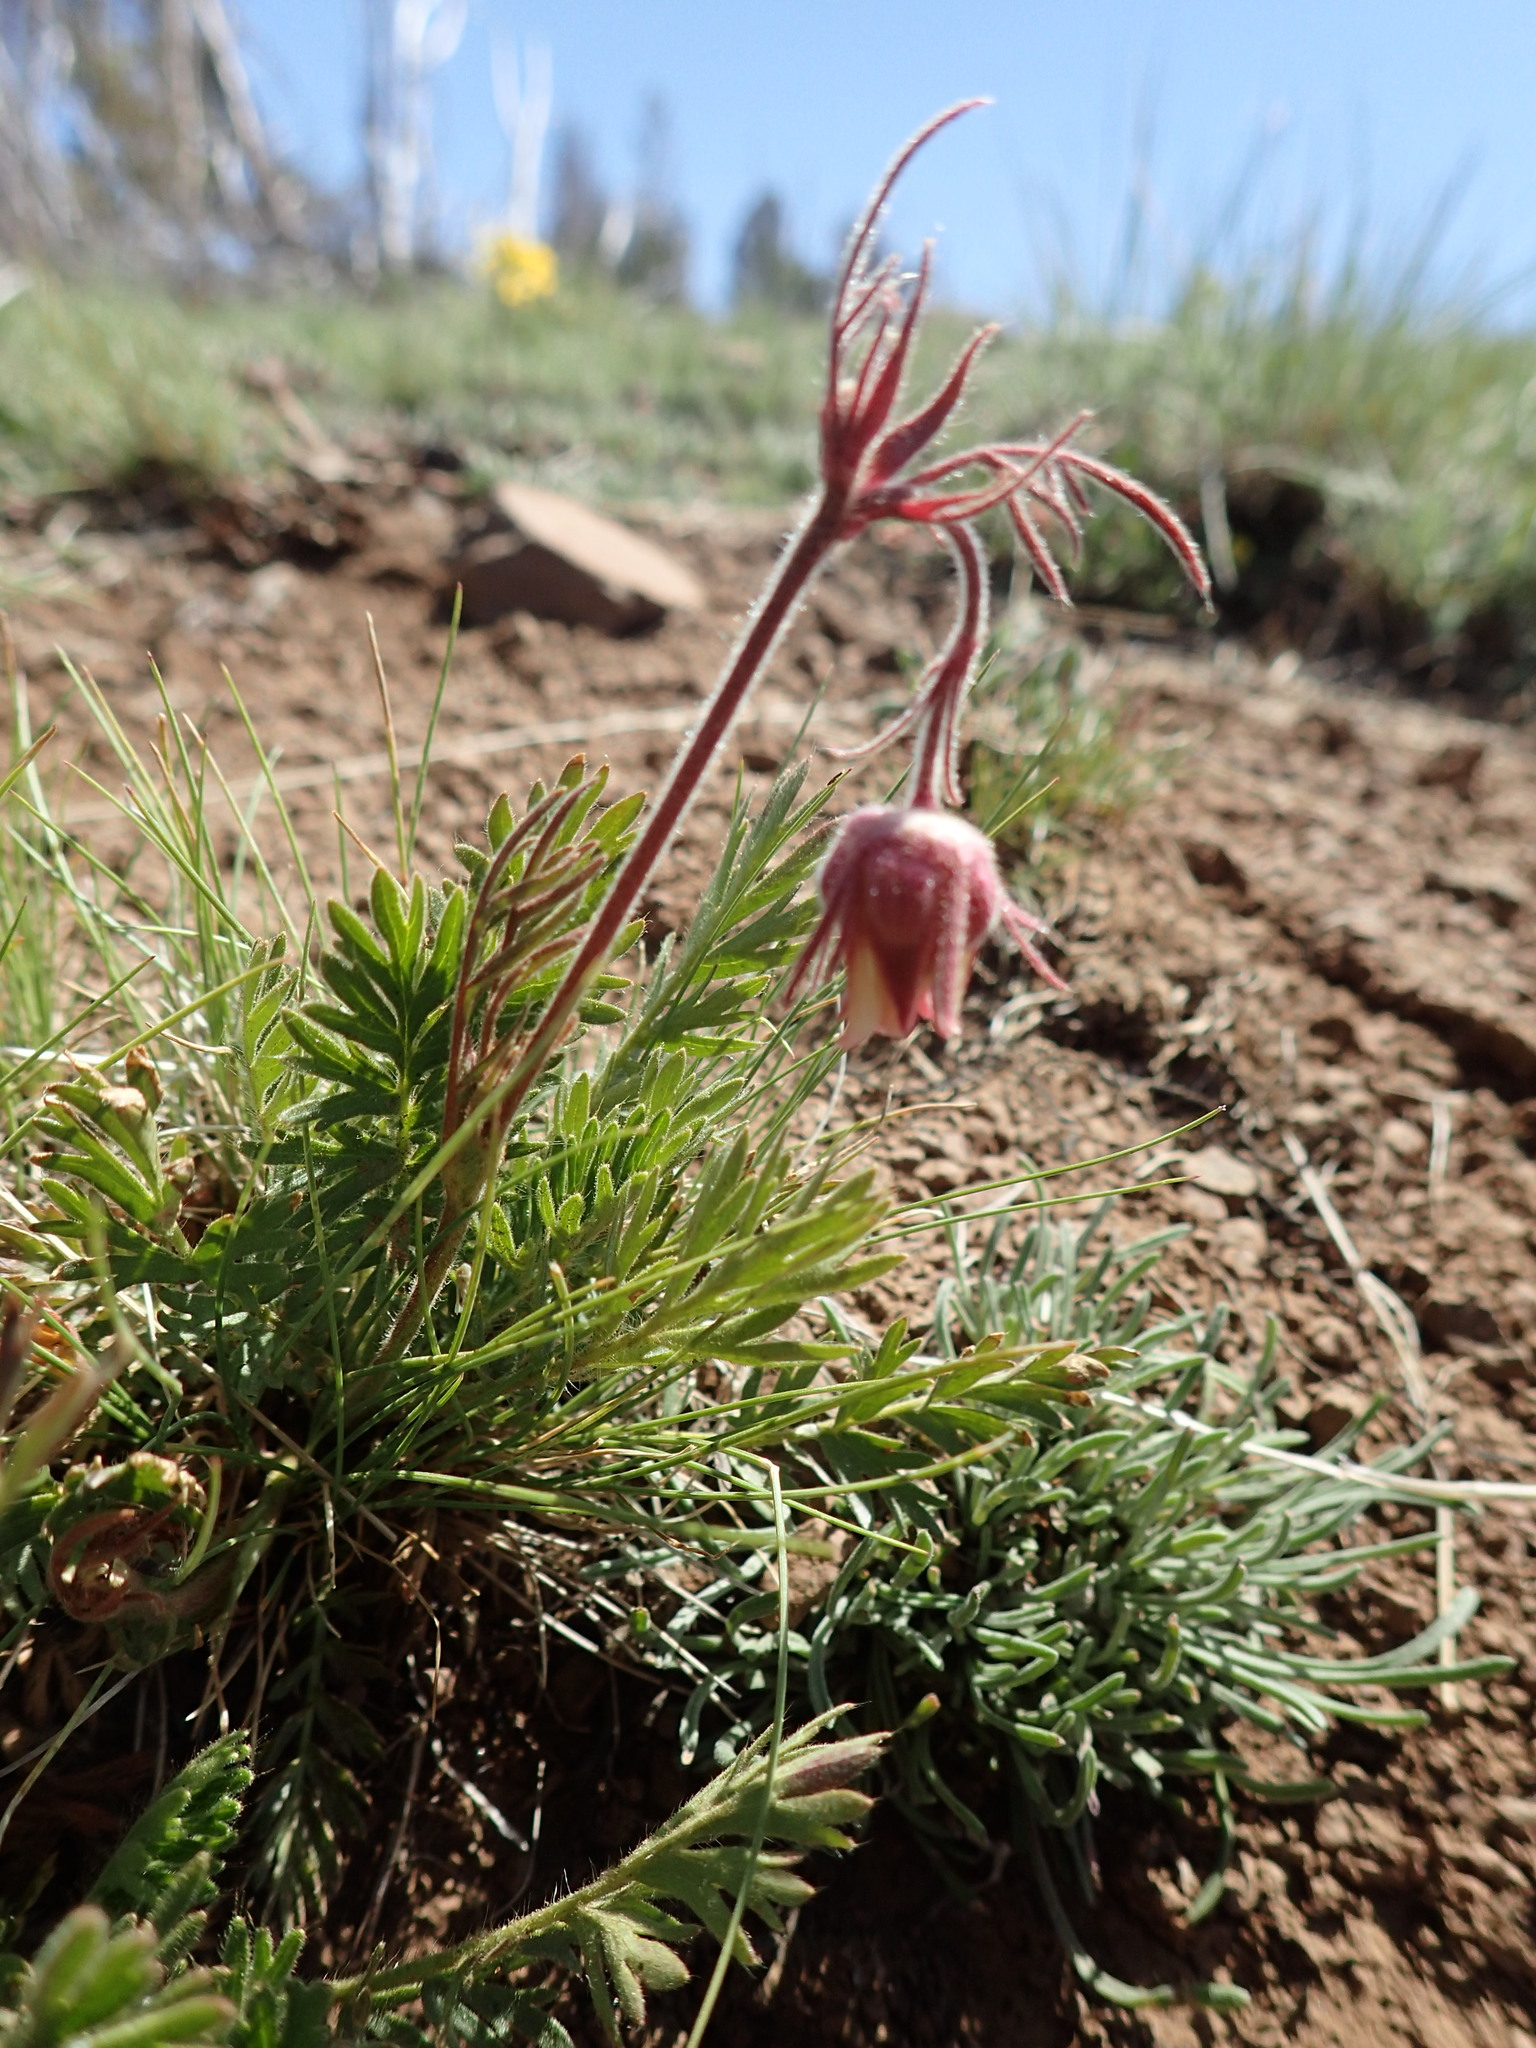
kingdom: Plantae
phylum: Tracheophyta
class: Magnoliopsida
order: Rosales
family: Rosaceae
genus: Geum
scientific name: Geum triflorum
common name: Old man's whiskers
